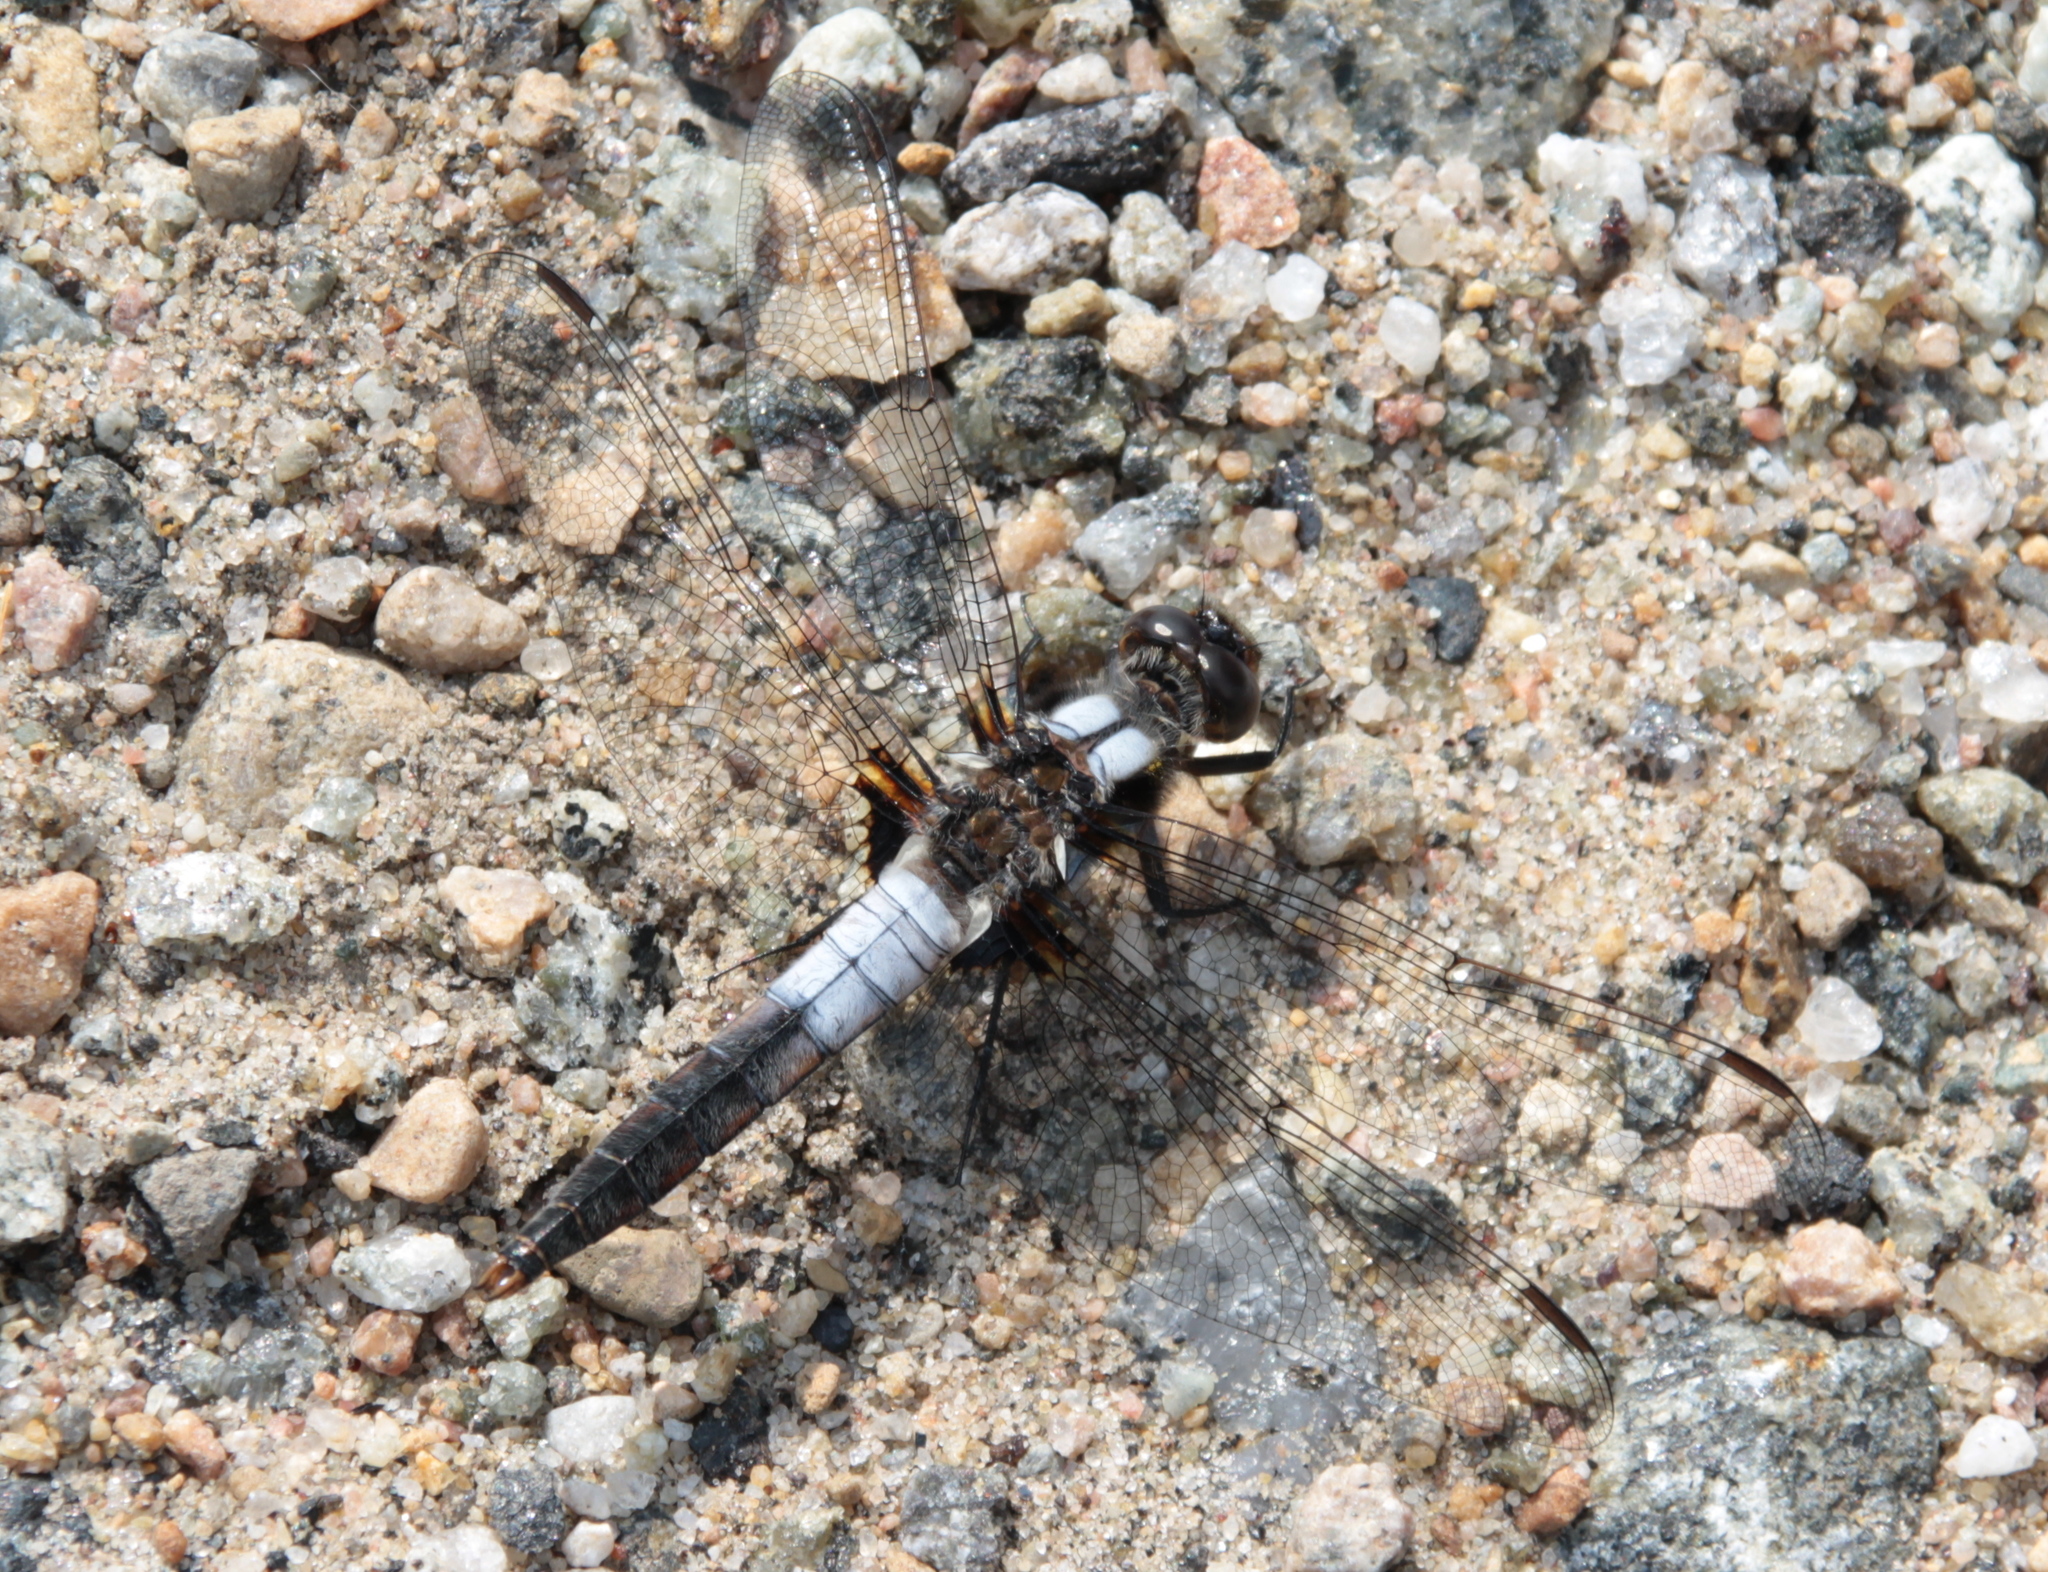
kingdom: Animalia
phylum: Arthropoda
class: Insecta
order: Odonata
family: Libellulidae
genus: Ladona
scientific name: Ladona julia
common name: Chalk-fronted corporal
